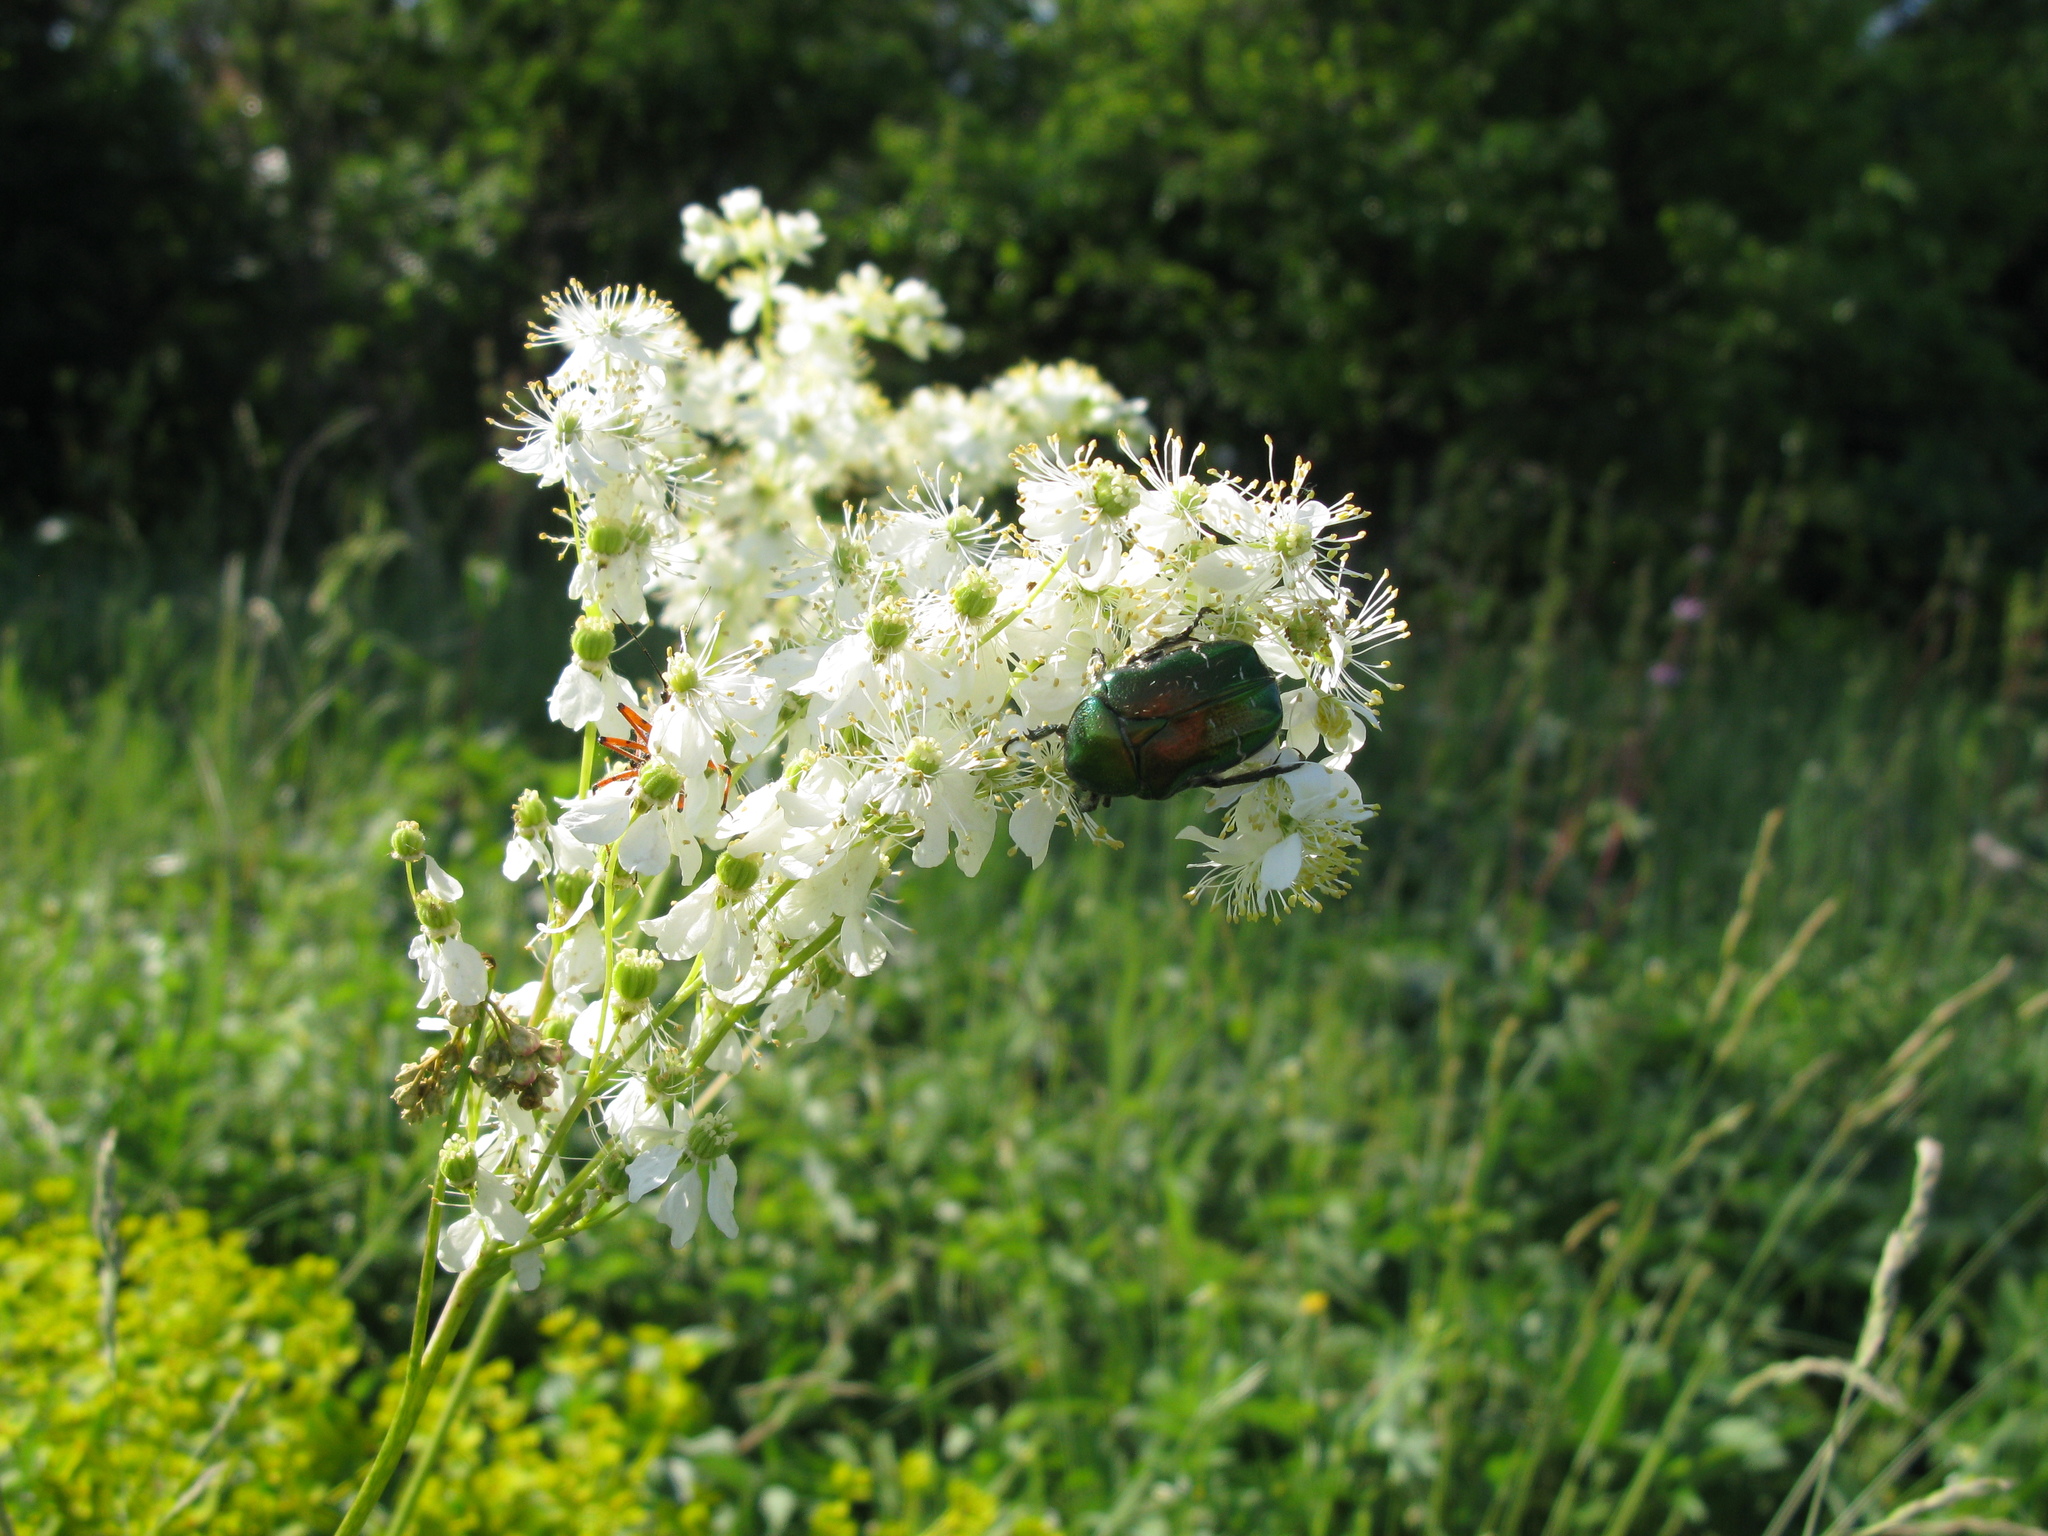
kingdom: Animalia
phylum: Arthropoda
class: Insecta
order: Coleoptera
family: Scarabaeidae
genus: Cetonia
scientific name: Cetonia aurata
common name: Rose chafer
